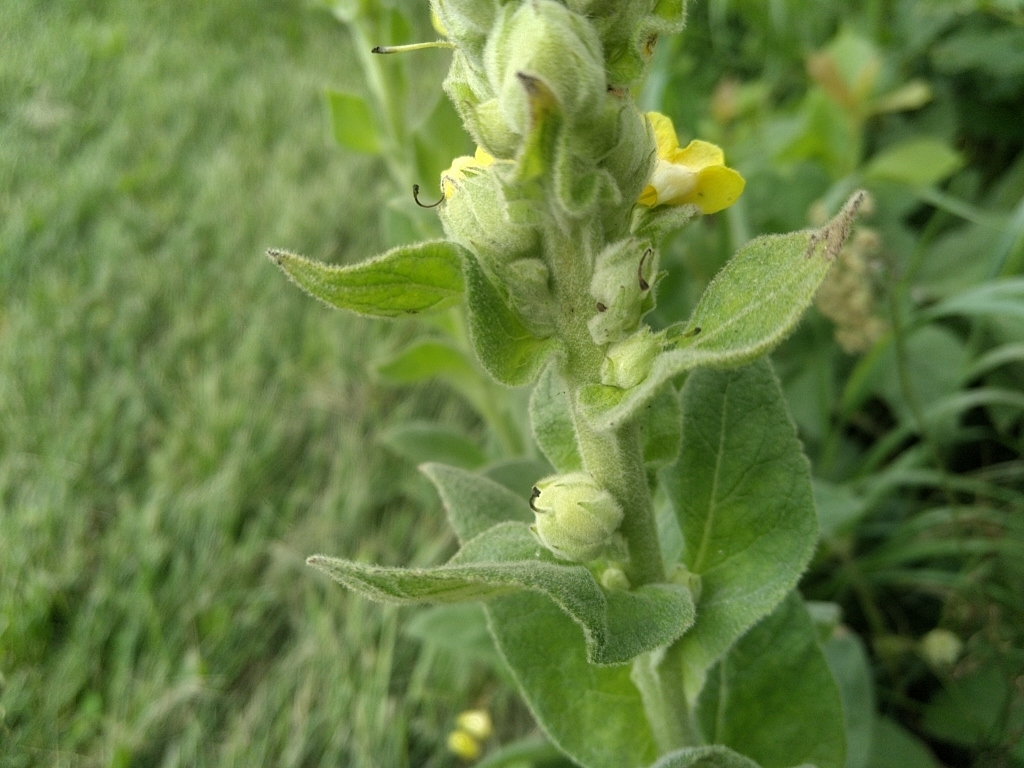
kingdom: Plantae
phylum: Tracheophyta
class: Magnoliopsida
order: Lamiales
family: Scrophulariaceae
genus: Verbascum
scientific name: Verbascum thapsus
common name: Common mullein
